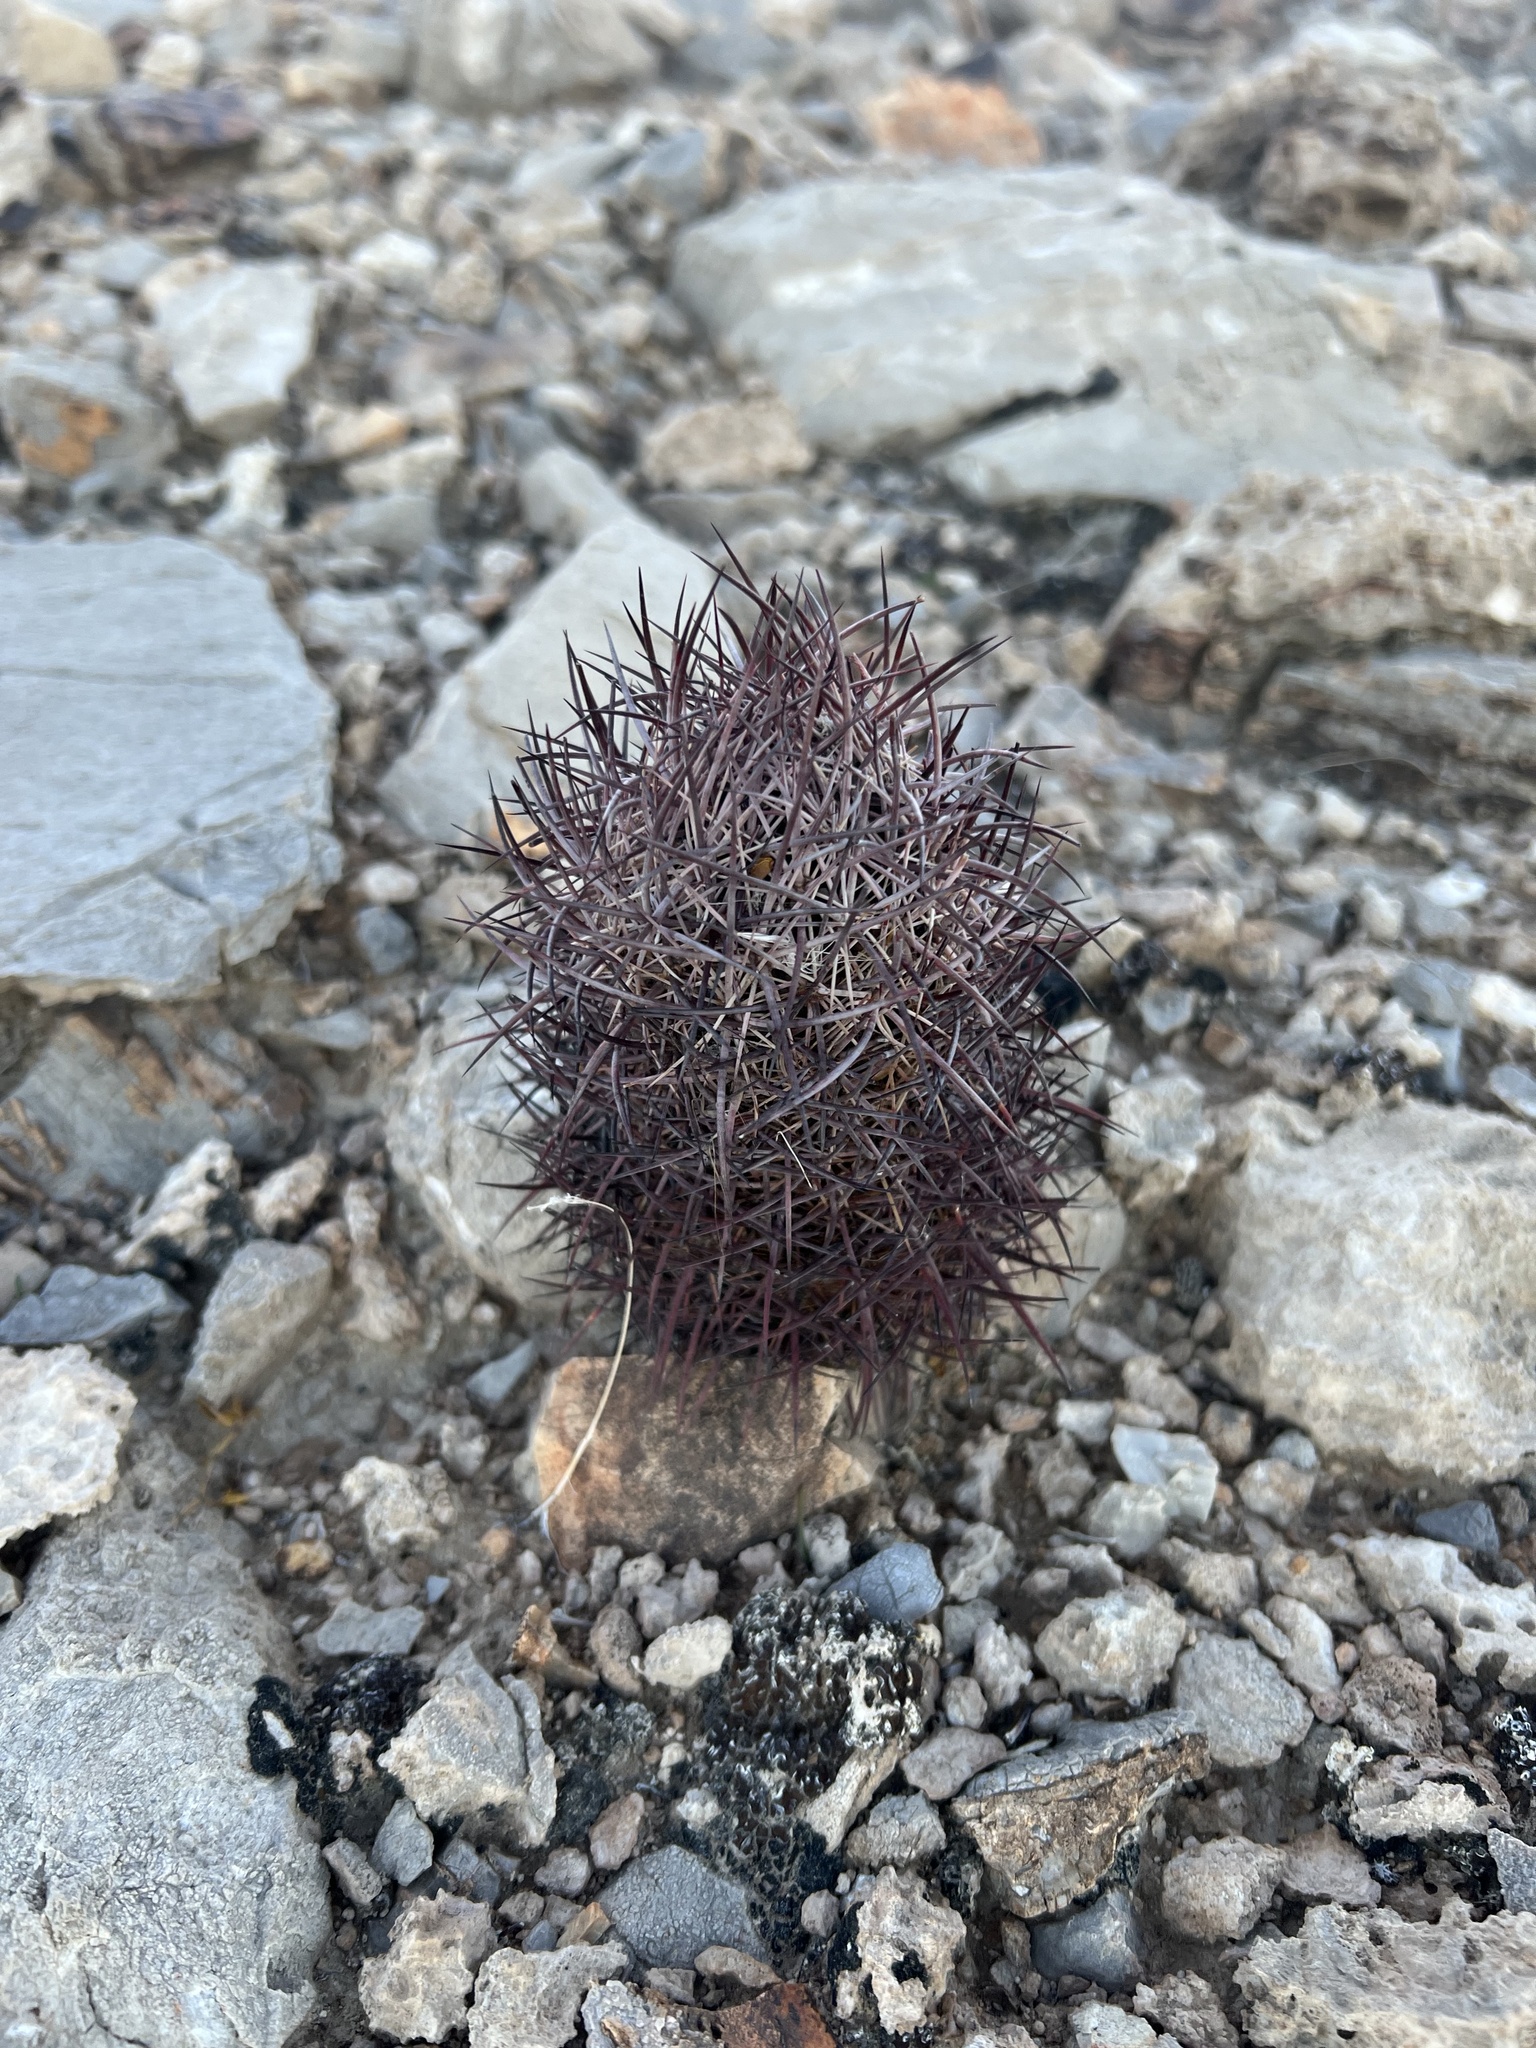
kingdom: Plantae
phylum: Tracheophyta
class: Magnoliopsida
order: Caryophyllales
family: Cactaceae
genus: Sclerocactus
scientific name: Sclerocactus johnsonii
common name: Eight-spine fishhook cactus
